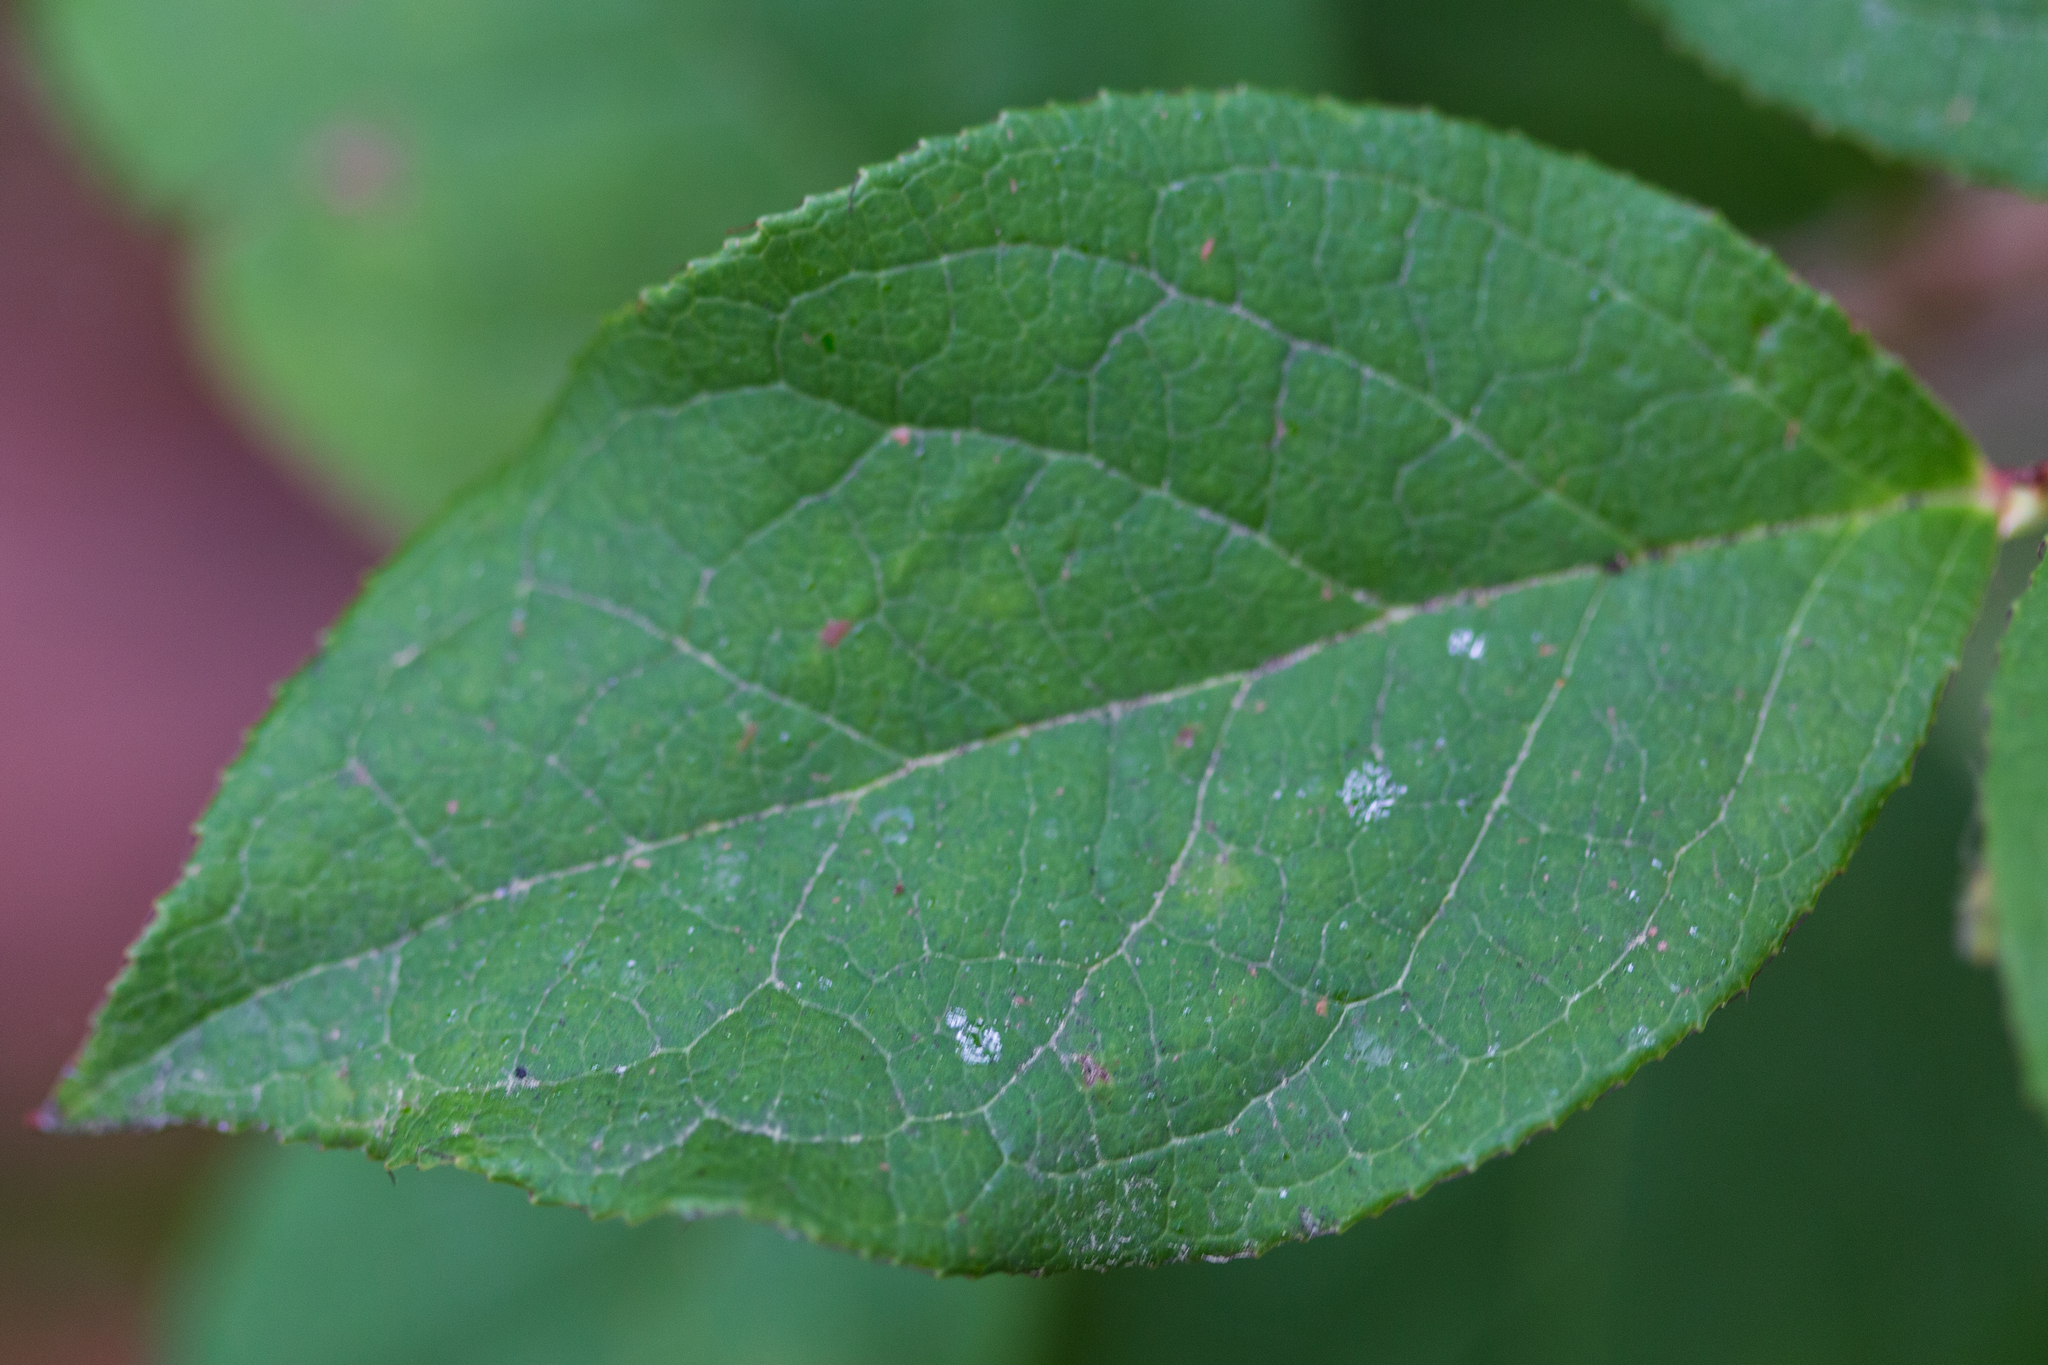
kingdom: Plantae
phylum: Tracheophyta
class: Magnoliopsida
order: Ericales
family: Ericaceae
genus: Gaultheria
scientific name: Gaultheria shallon
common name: Shallon
